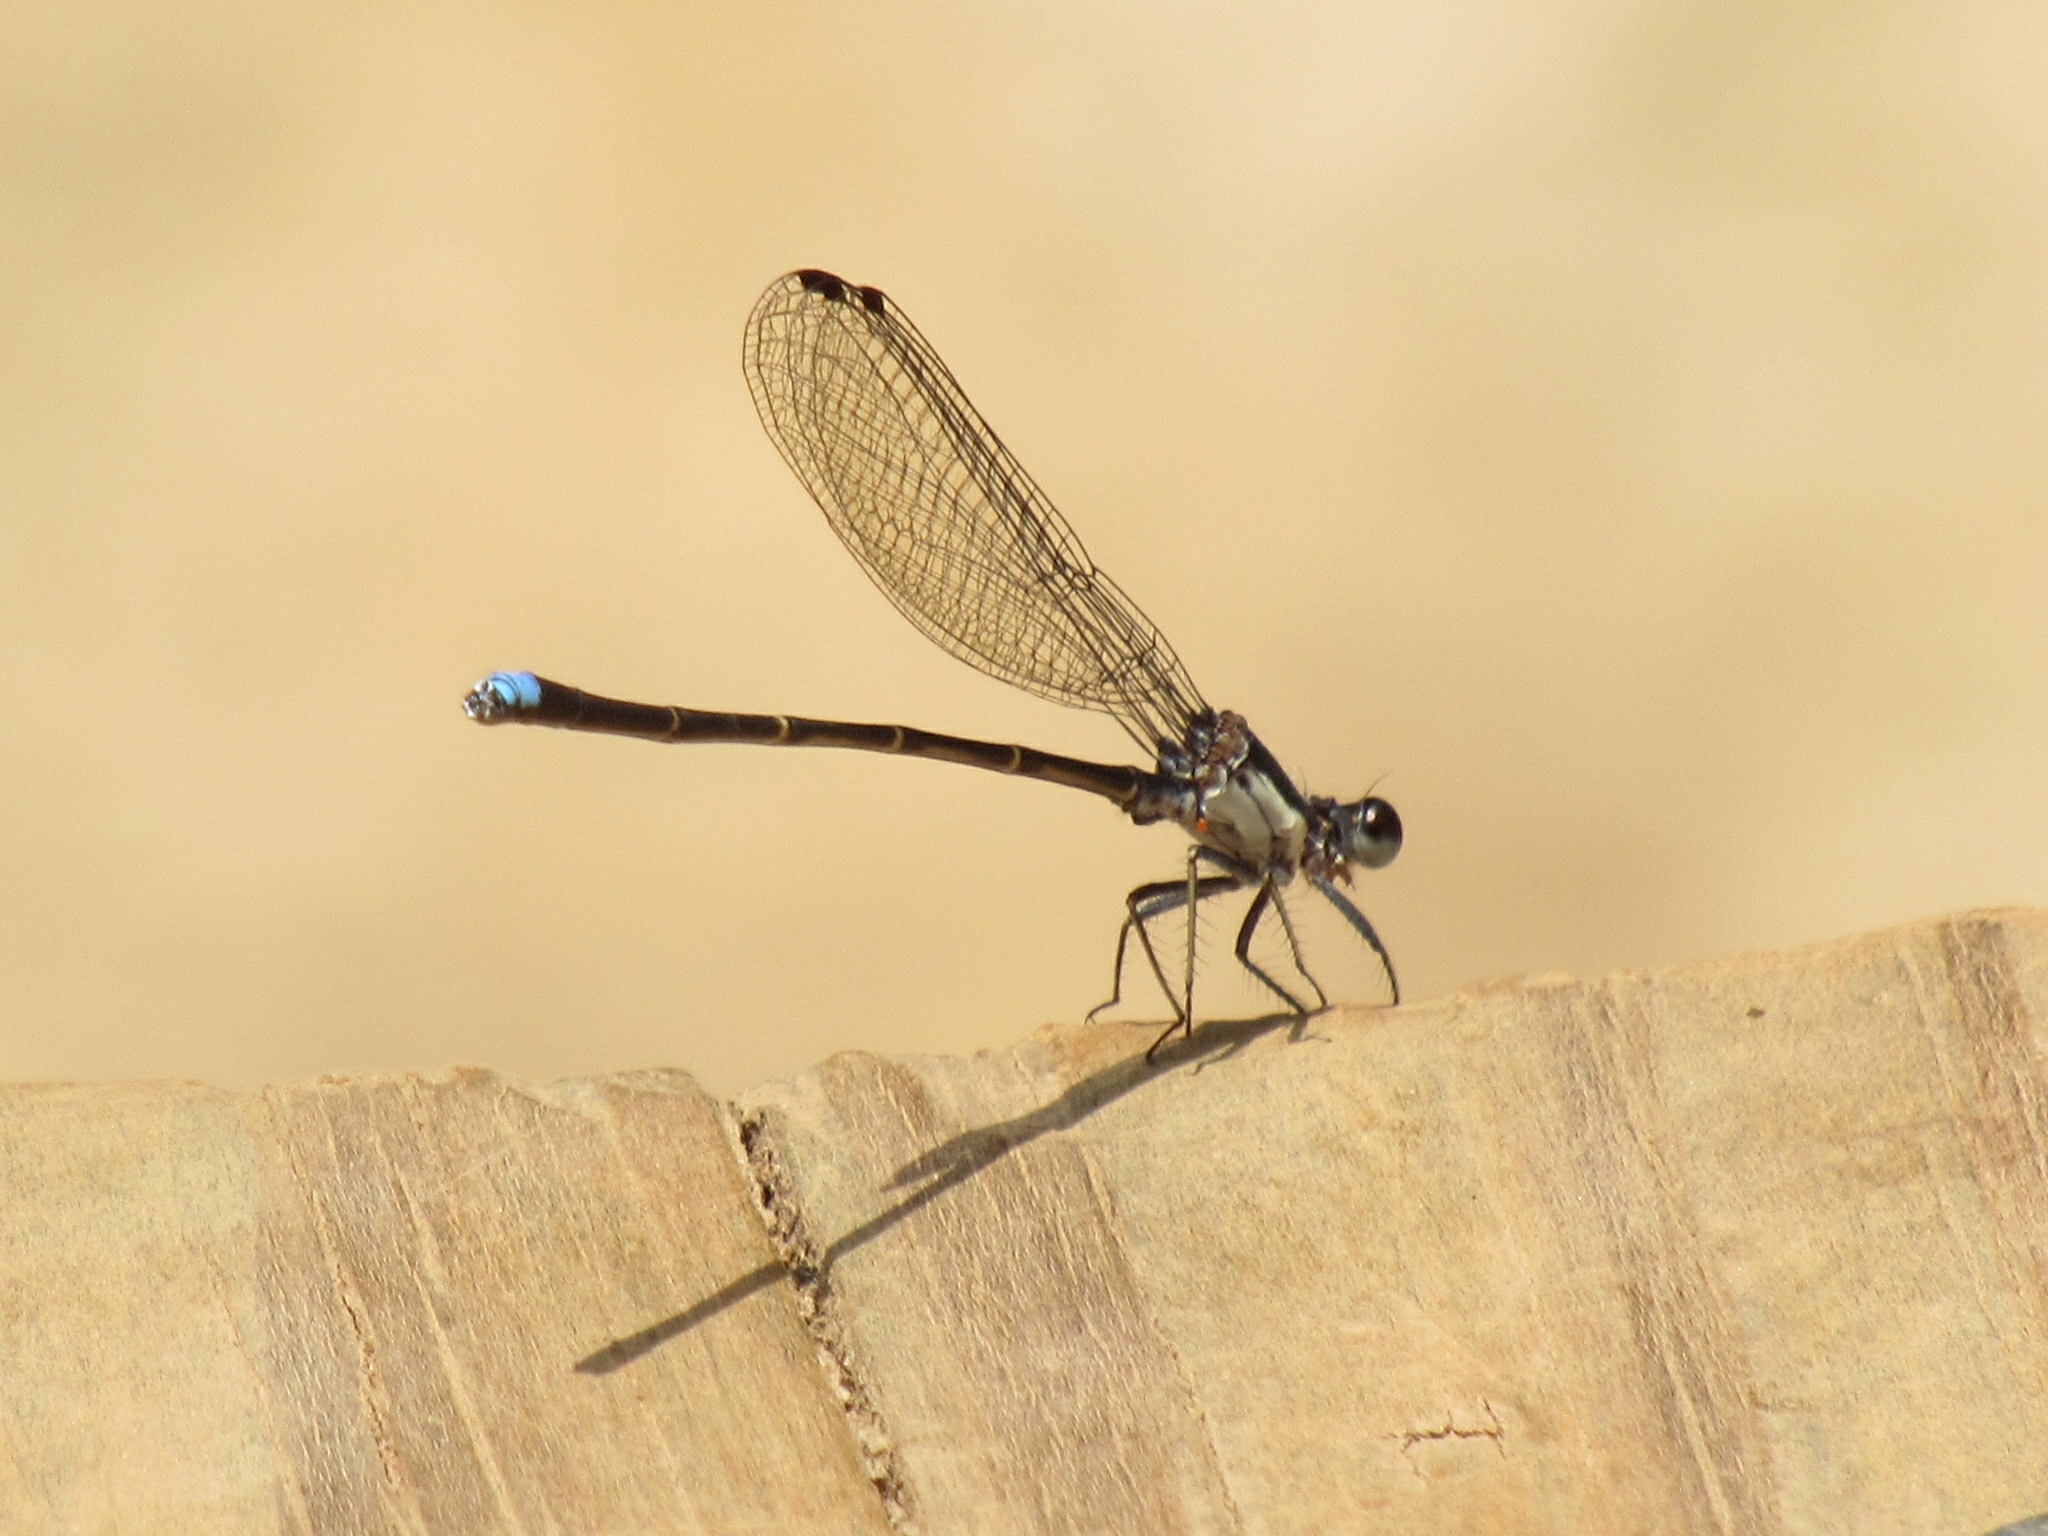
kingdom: Animalia
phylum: Arthropoda
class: Insecta
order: Odonata
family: Coenagrionidae
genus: Argia
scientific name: Argia tibialis
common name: Blue-tipped dancer
